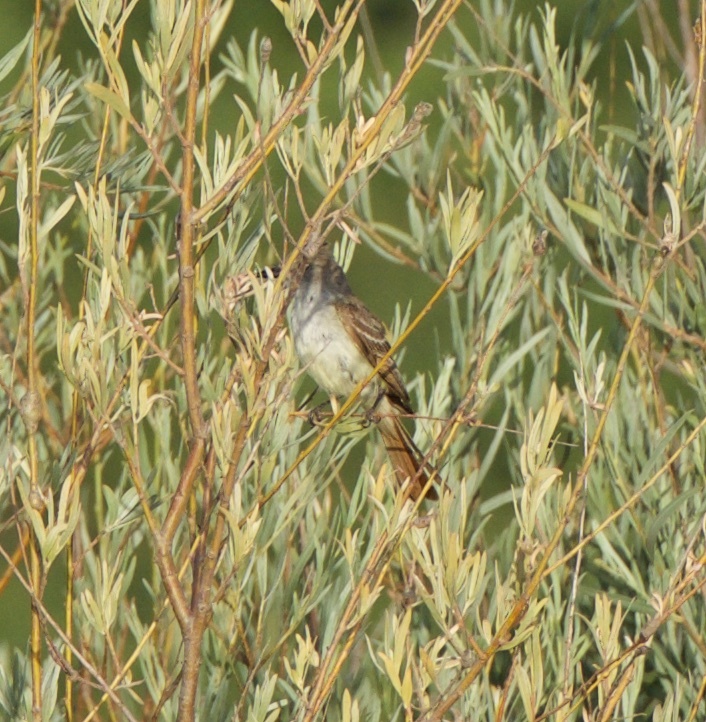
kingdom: Animalia
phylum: Chordata
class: Aves
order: Passeriformes
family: Tyrannidae
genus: Myiarchus
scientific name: Myiarchus cinerascens
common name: Ash-throated flycatcher
